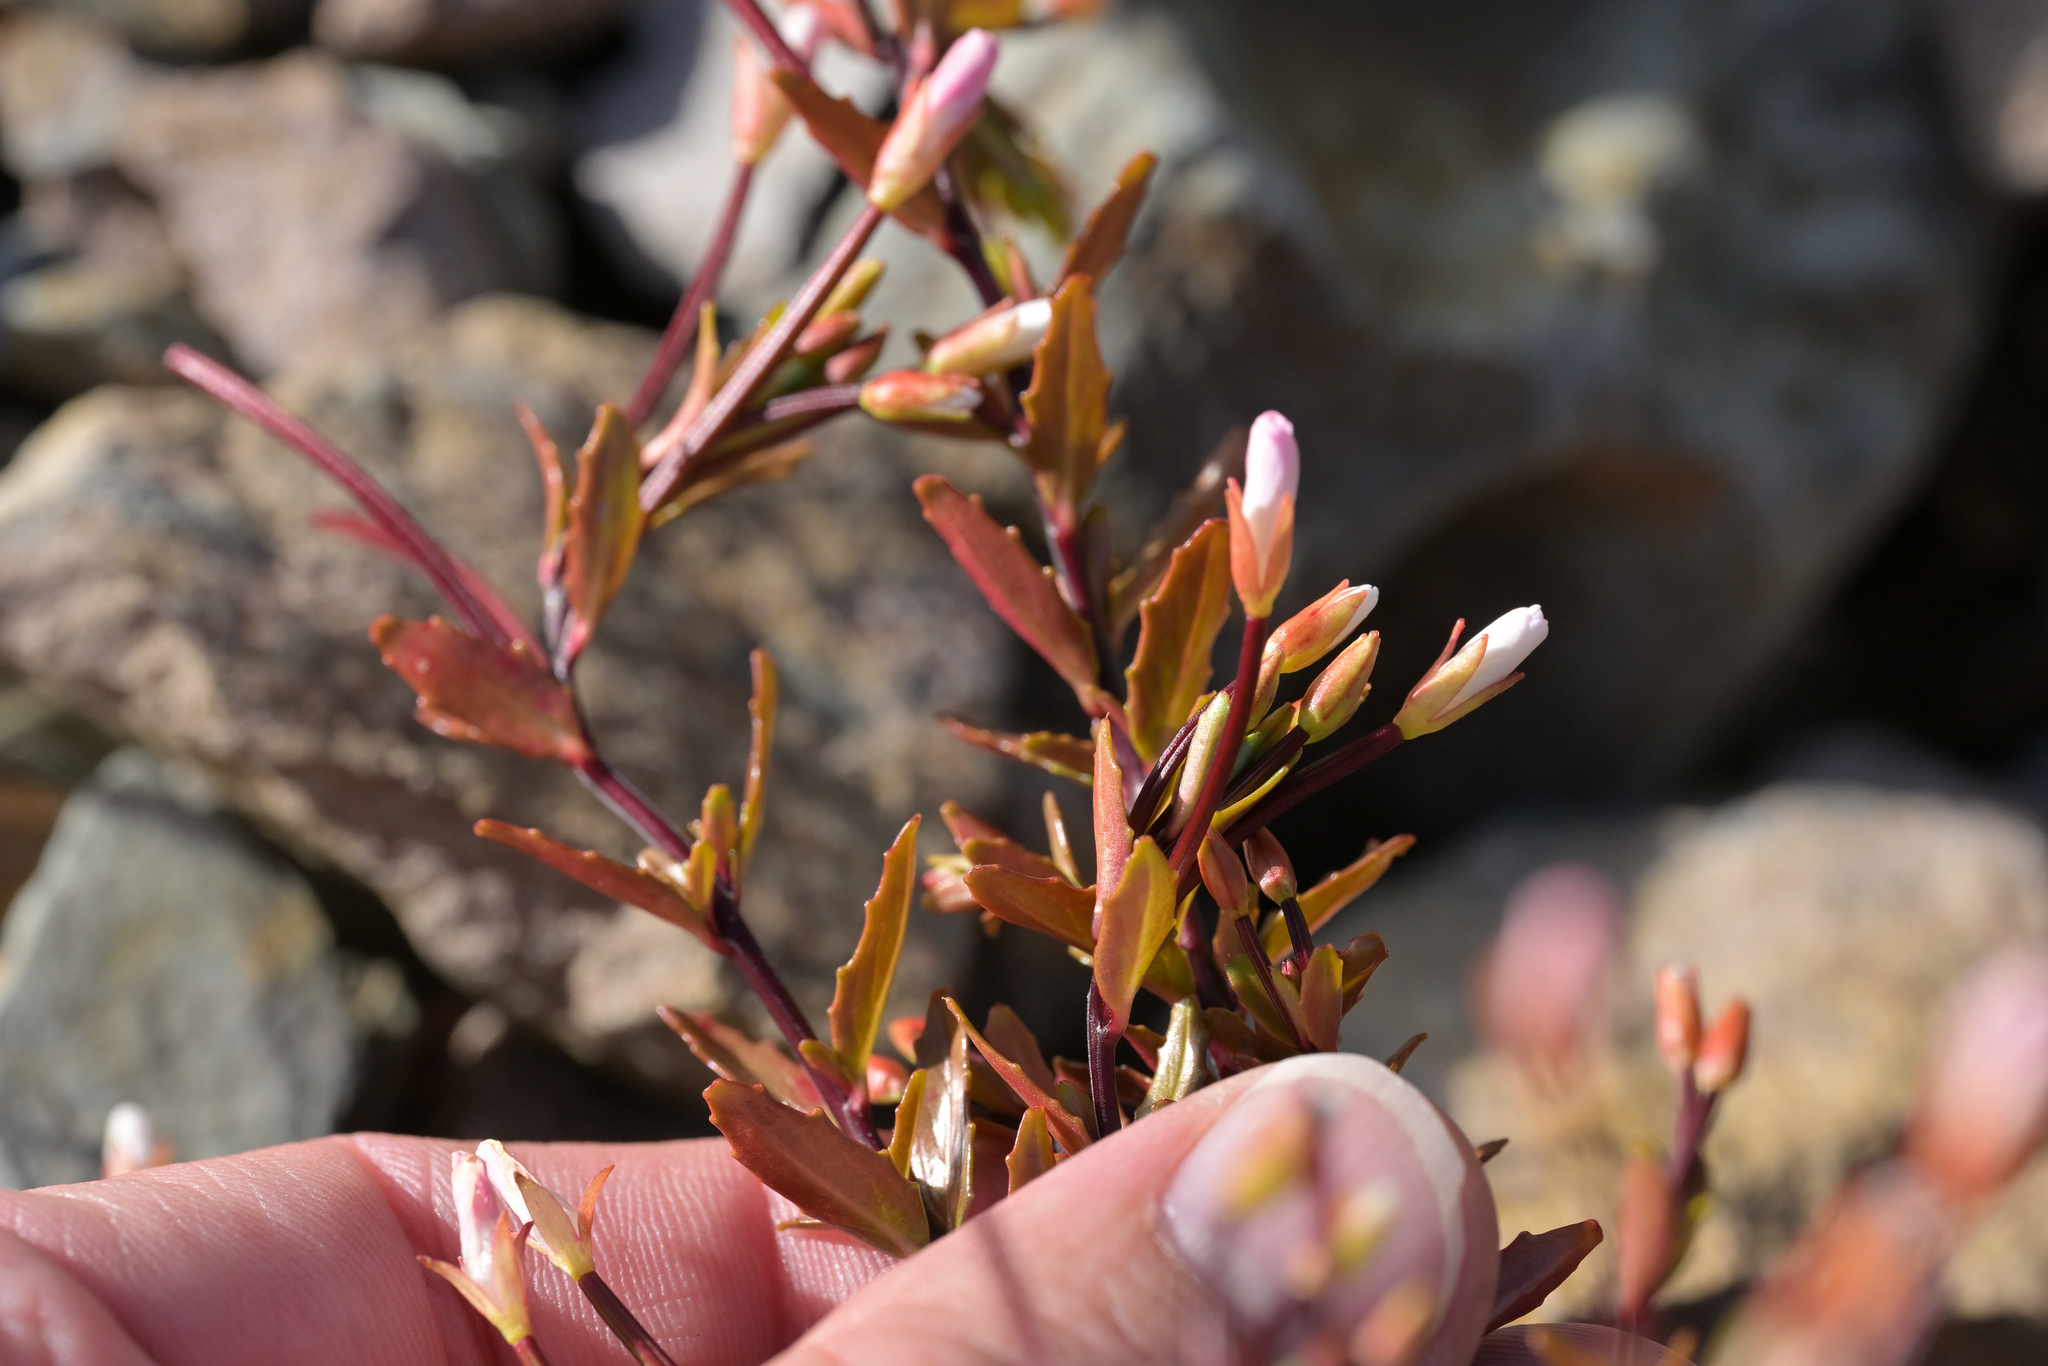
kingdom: Plantae
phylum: Tracheophyta
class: Magnoliopsida
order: Myrtales
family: Onagraceae
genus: Epilobium
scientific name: Epilobium glabellum
